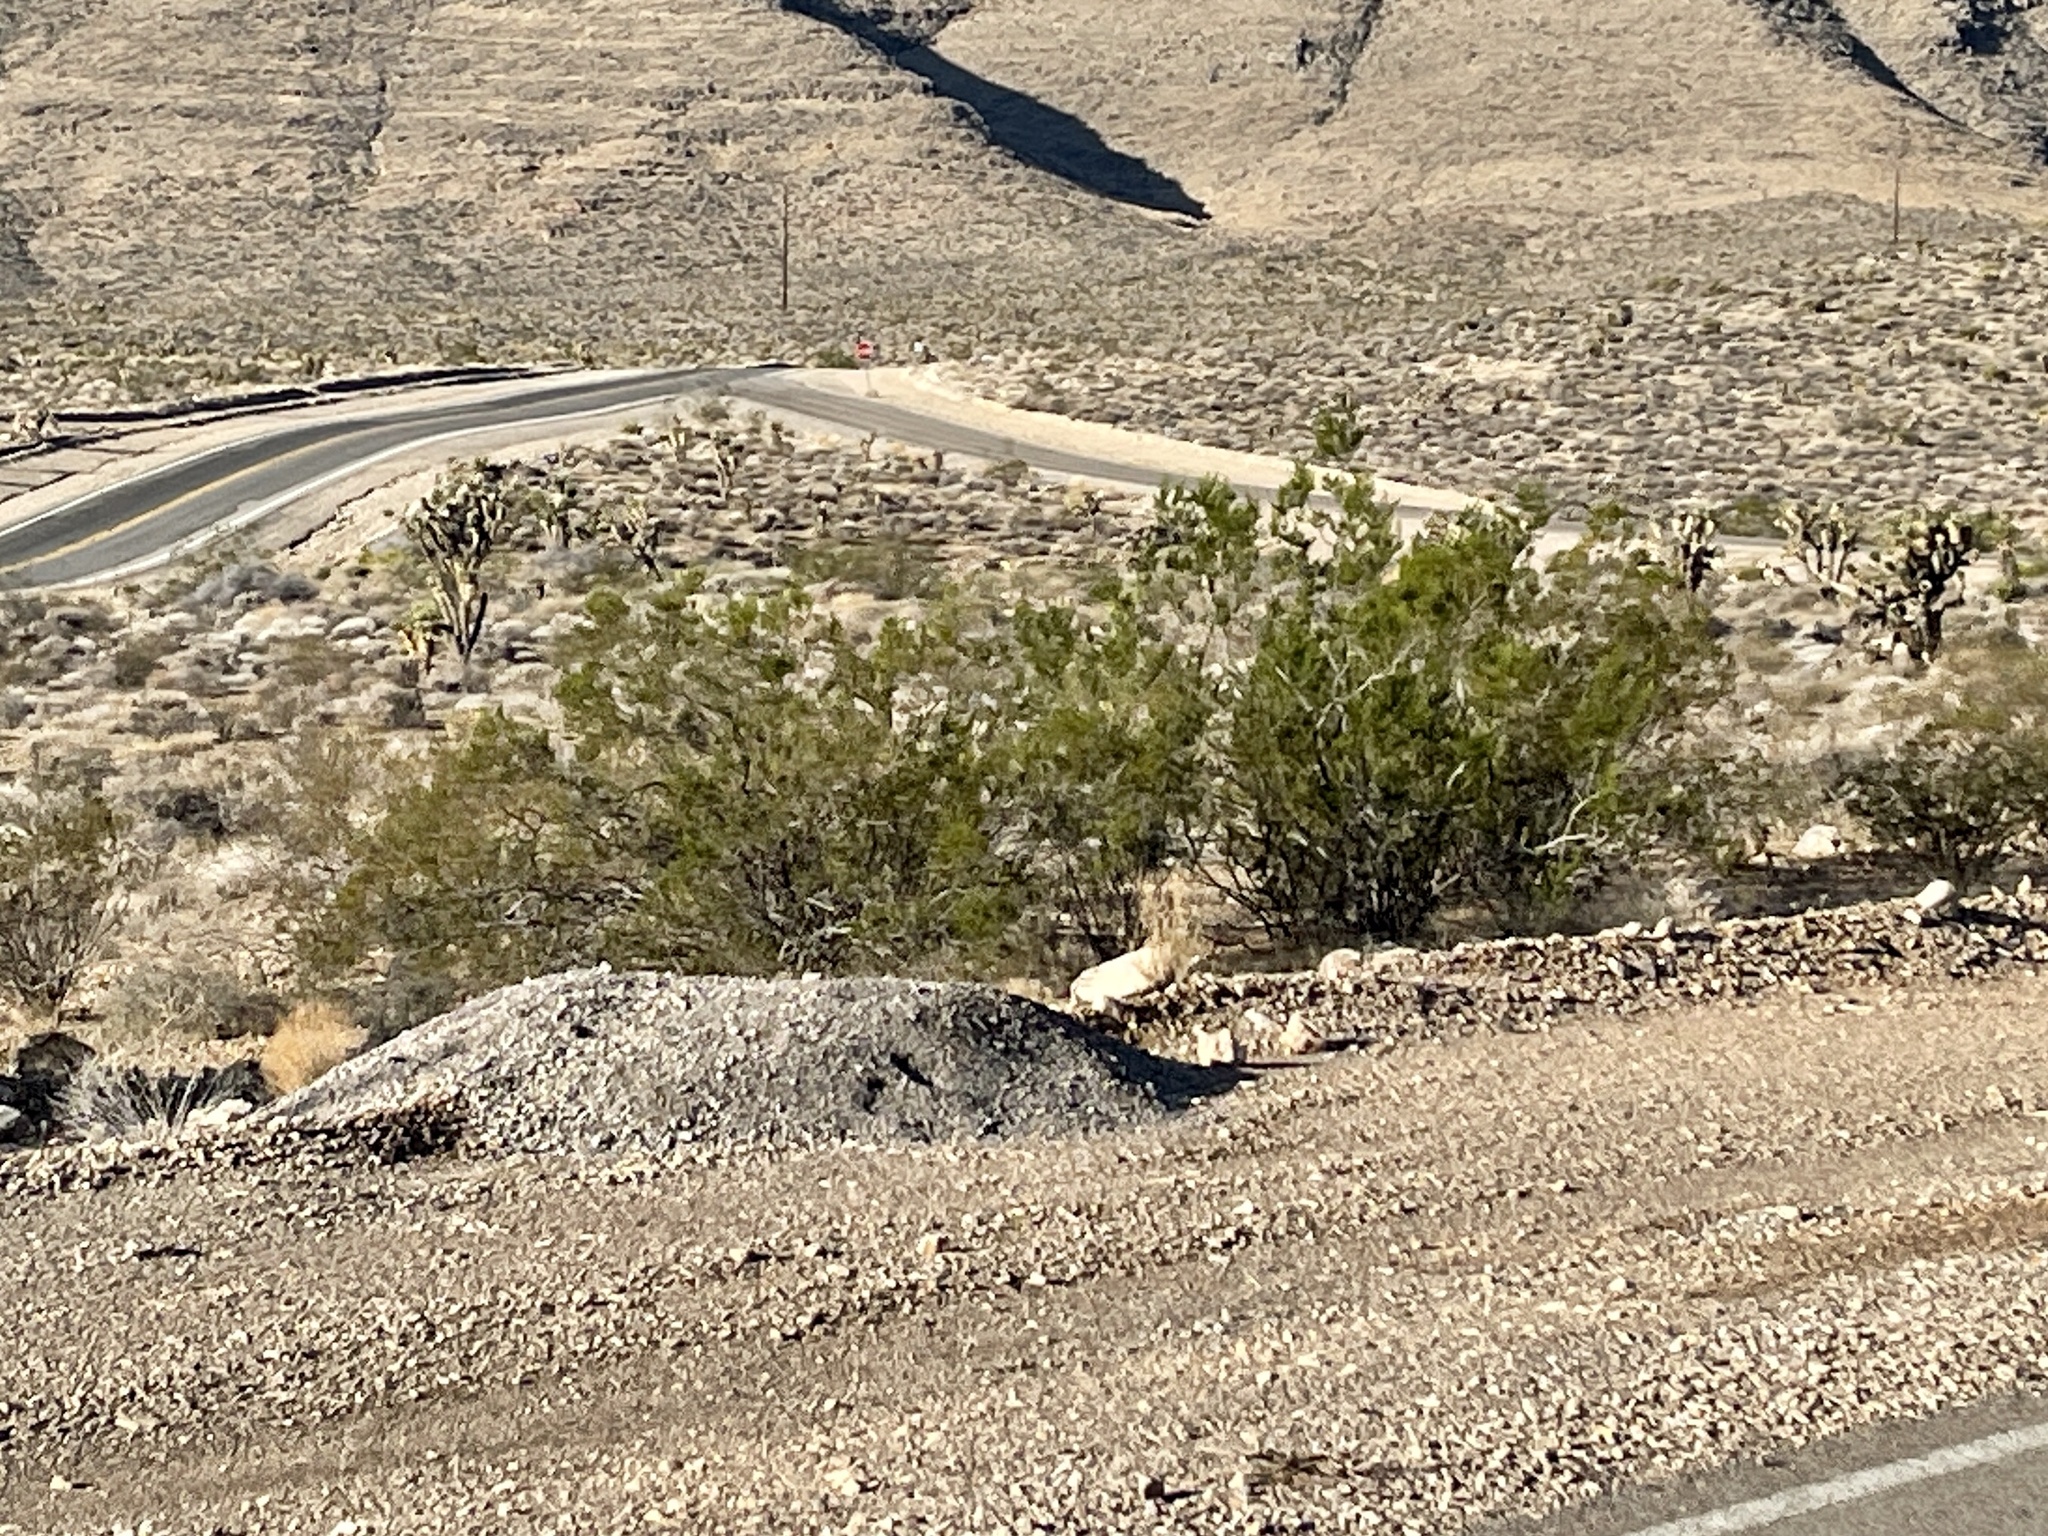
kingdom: Plantae
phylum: Tracheophyta
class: Magnoliopsida
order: Zygophyllales
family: Zygophyllaceae
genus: Larrea
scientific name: Larrea tridentata
